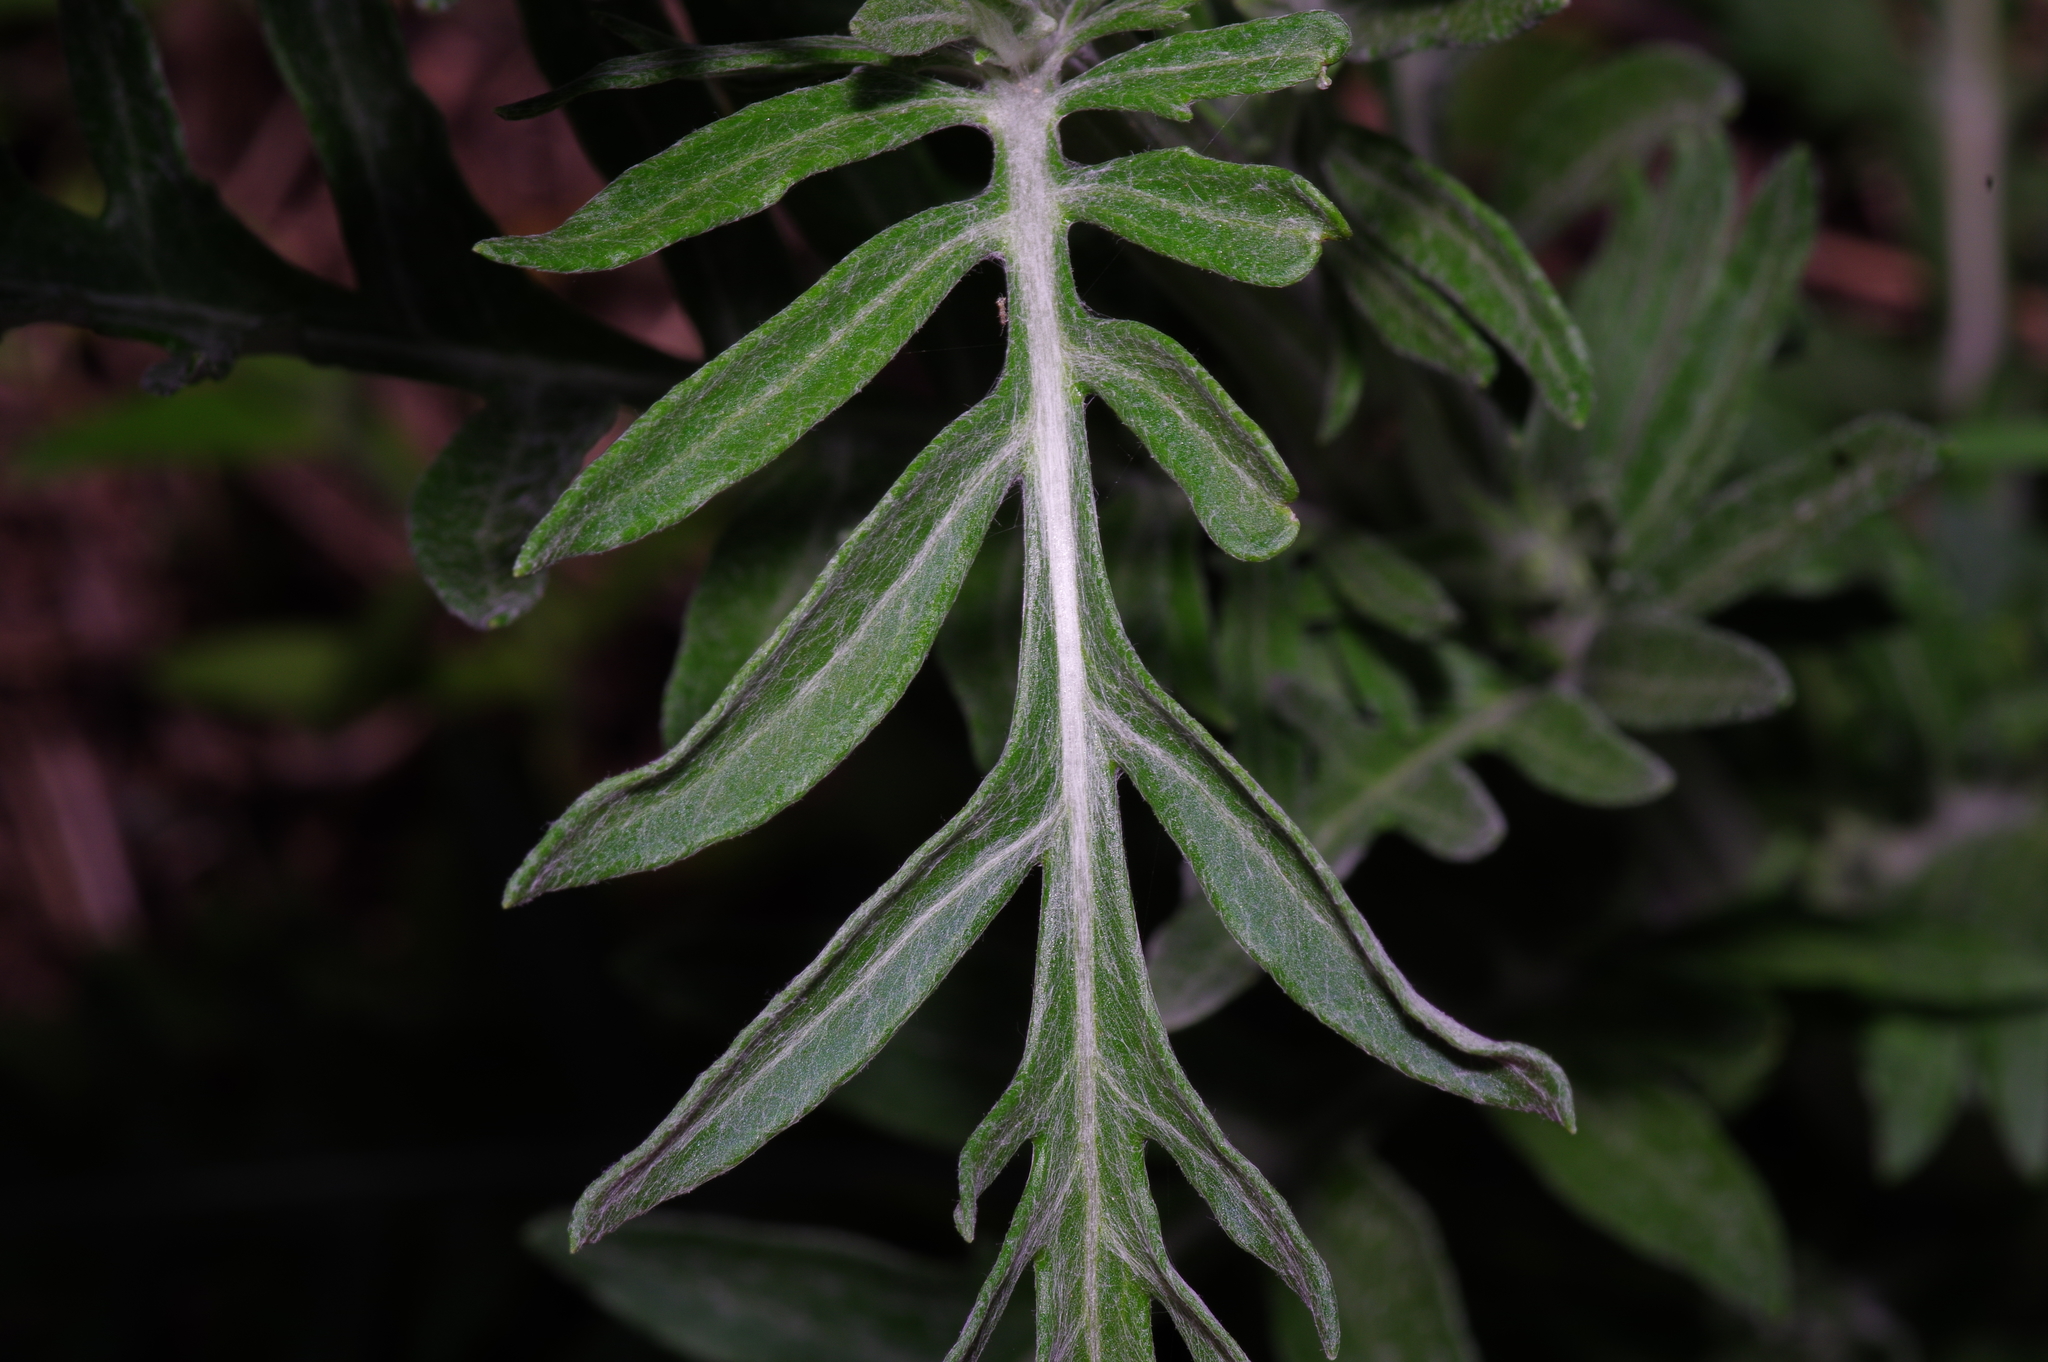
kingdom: Plantae
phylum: Tracheophyta
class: Magnoliopsida
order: Asterales
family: Asteraceae
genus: Hymenopappus
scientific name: Hymenopappus artemisiifolius
